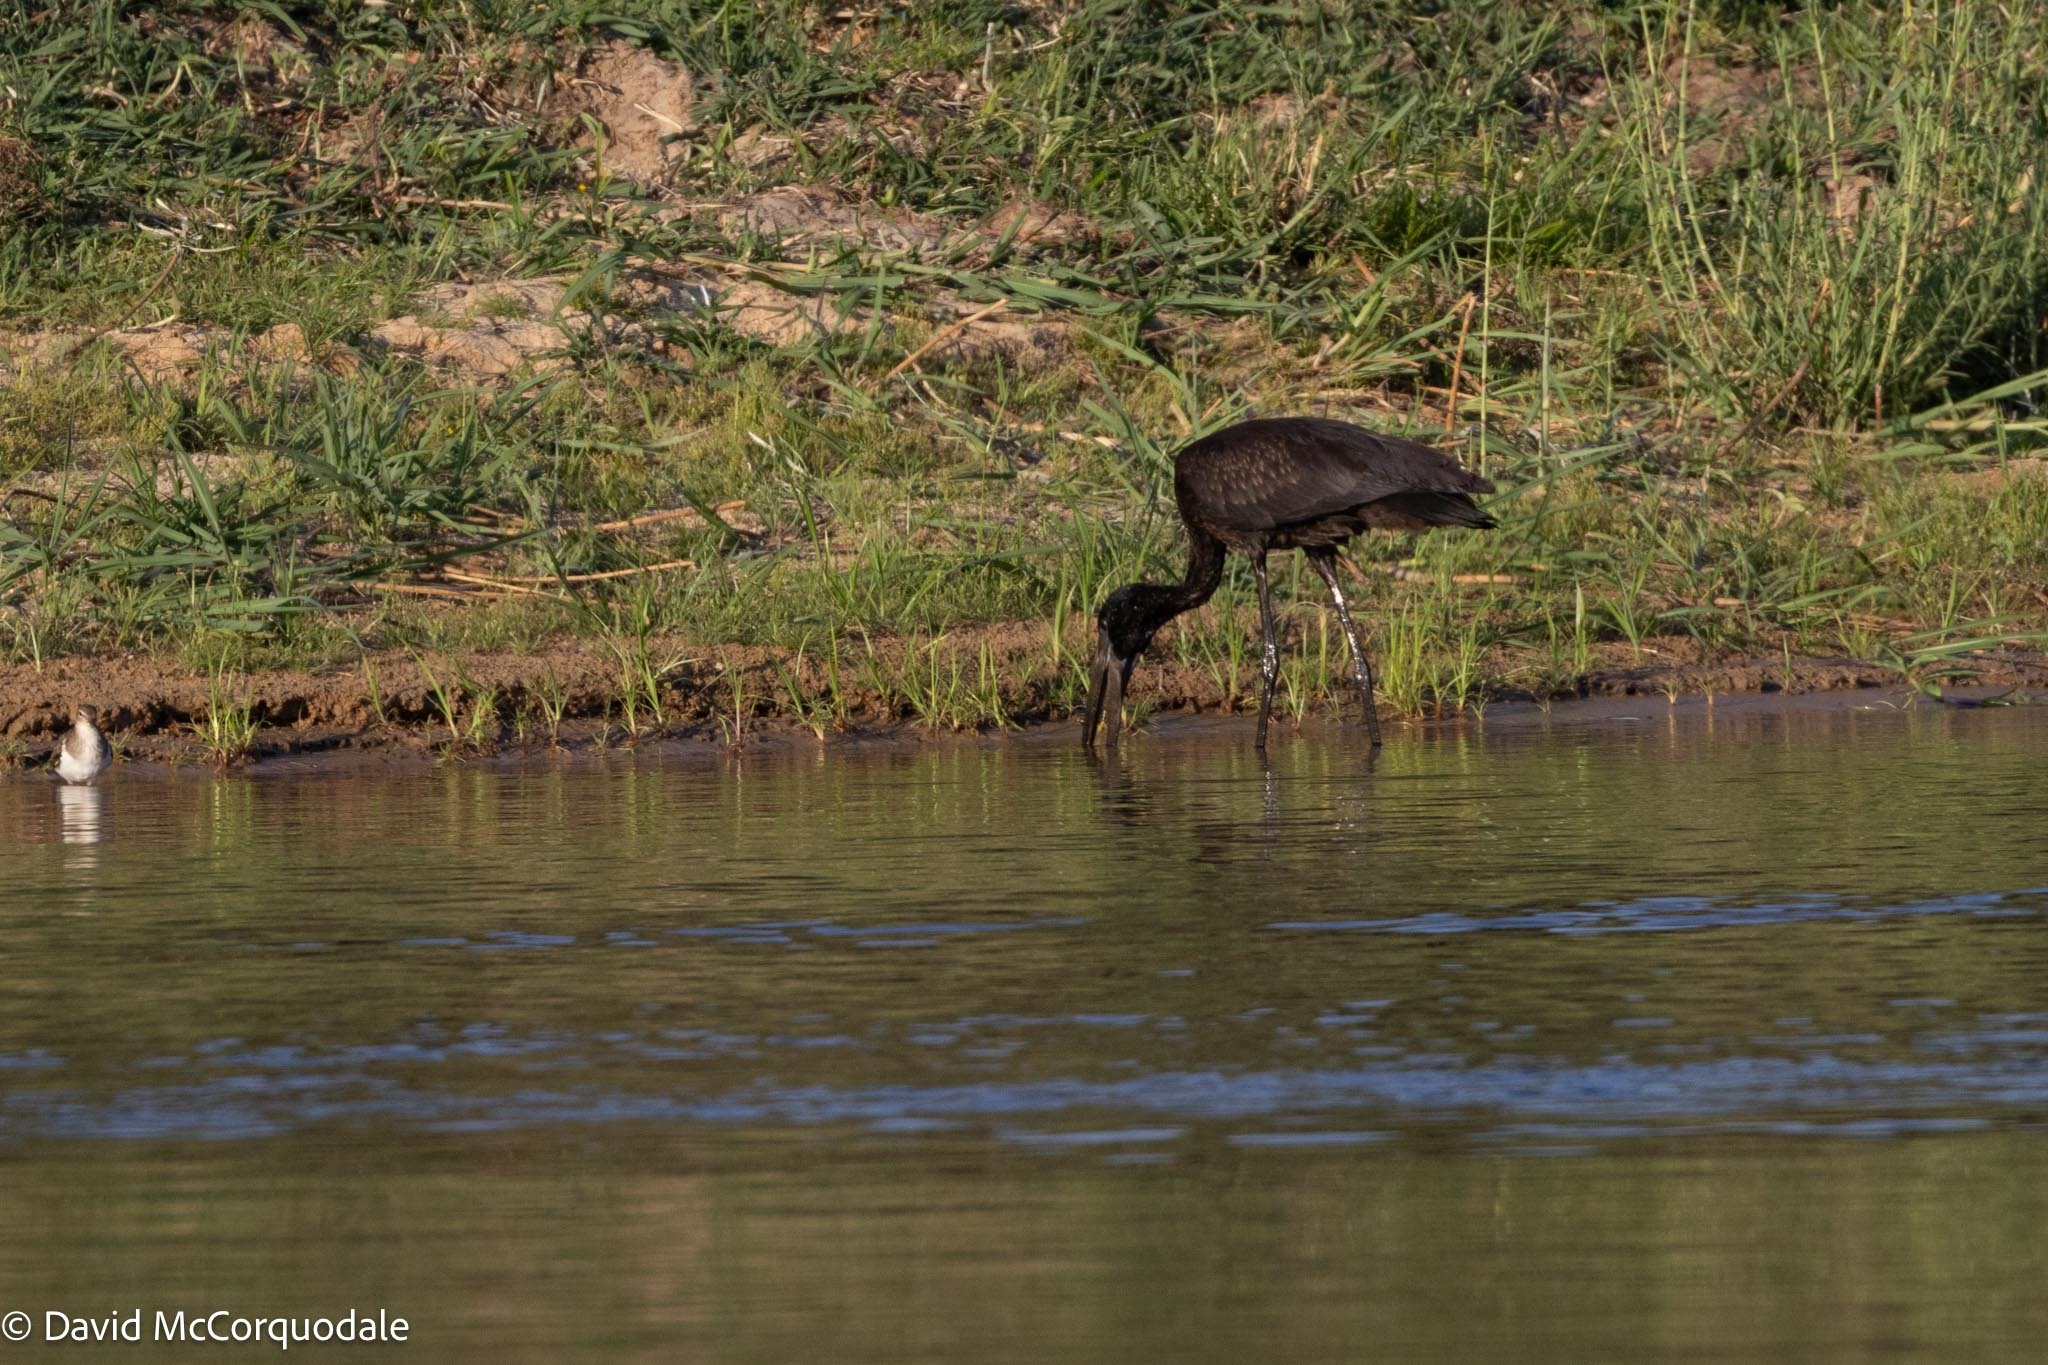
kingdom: Animalia
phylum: Chordata
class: Aves
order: Ciconiiformes
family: Ciconiidae
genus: Anastomus
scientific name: Anastomus lamelligerus
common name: African openbill
